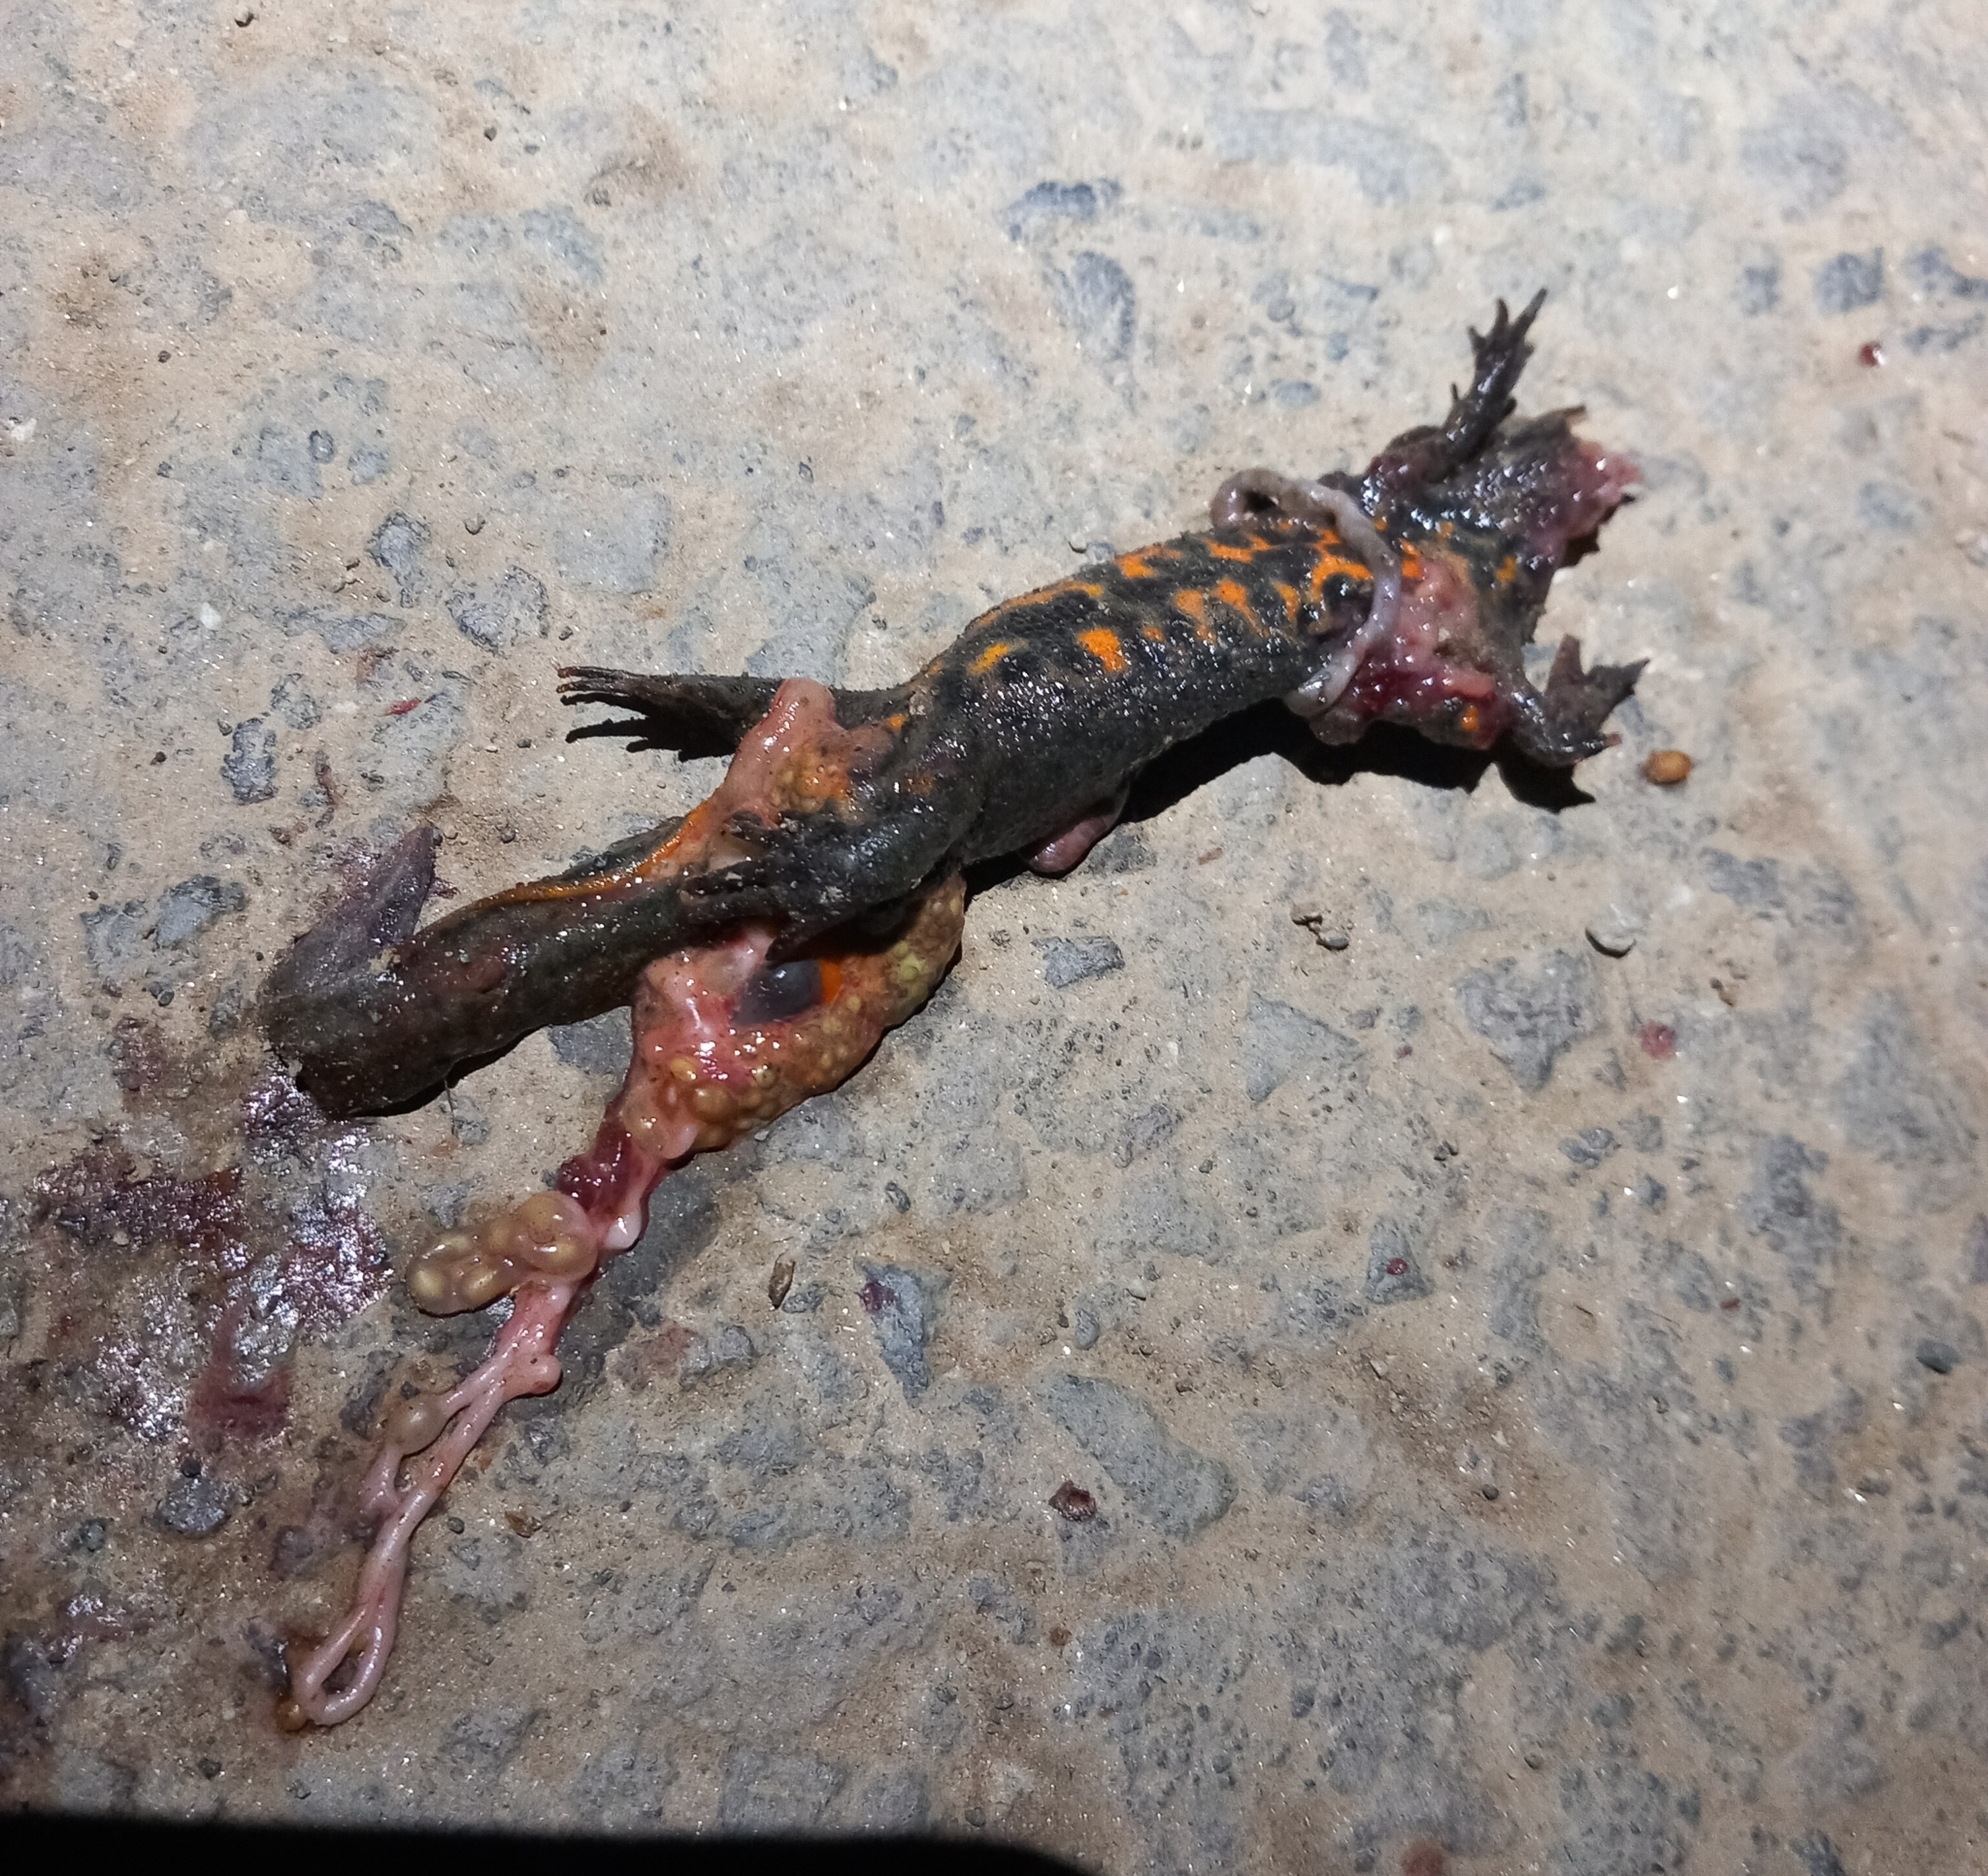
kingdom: Animalia
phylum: Chordata
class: Amphibia
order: Caudata
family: Salamandridae
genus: Triturus
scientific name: Triturus carnifex
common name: Italian crested newt
